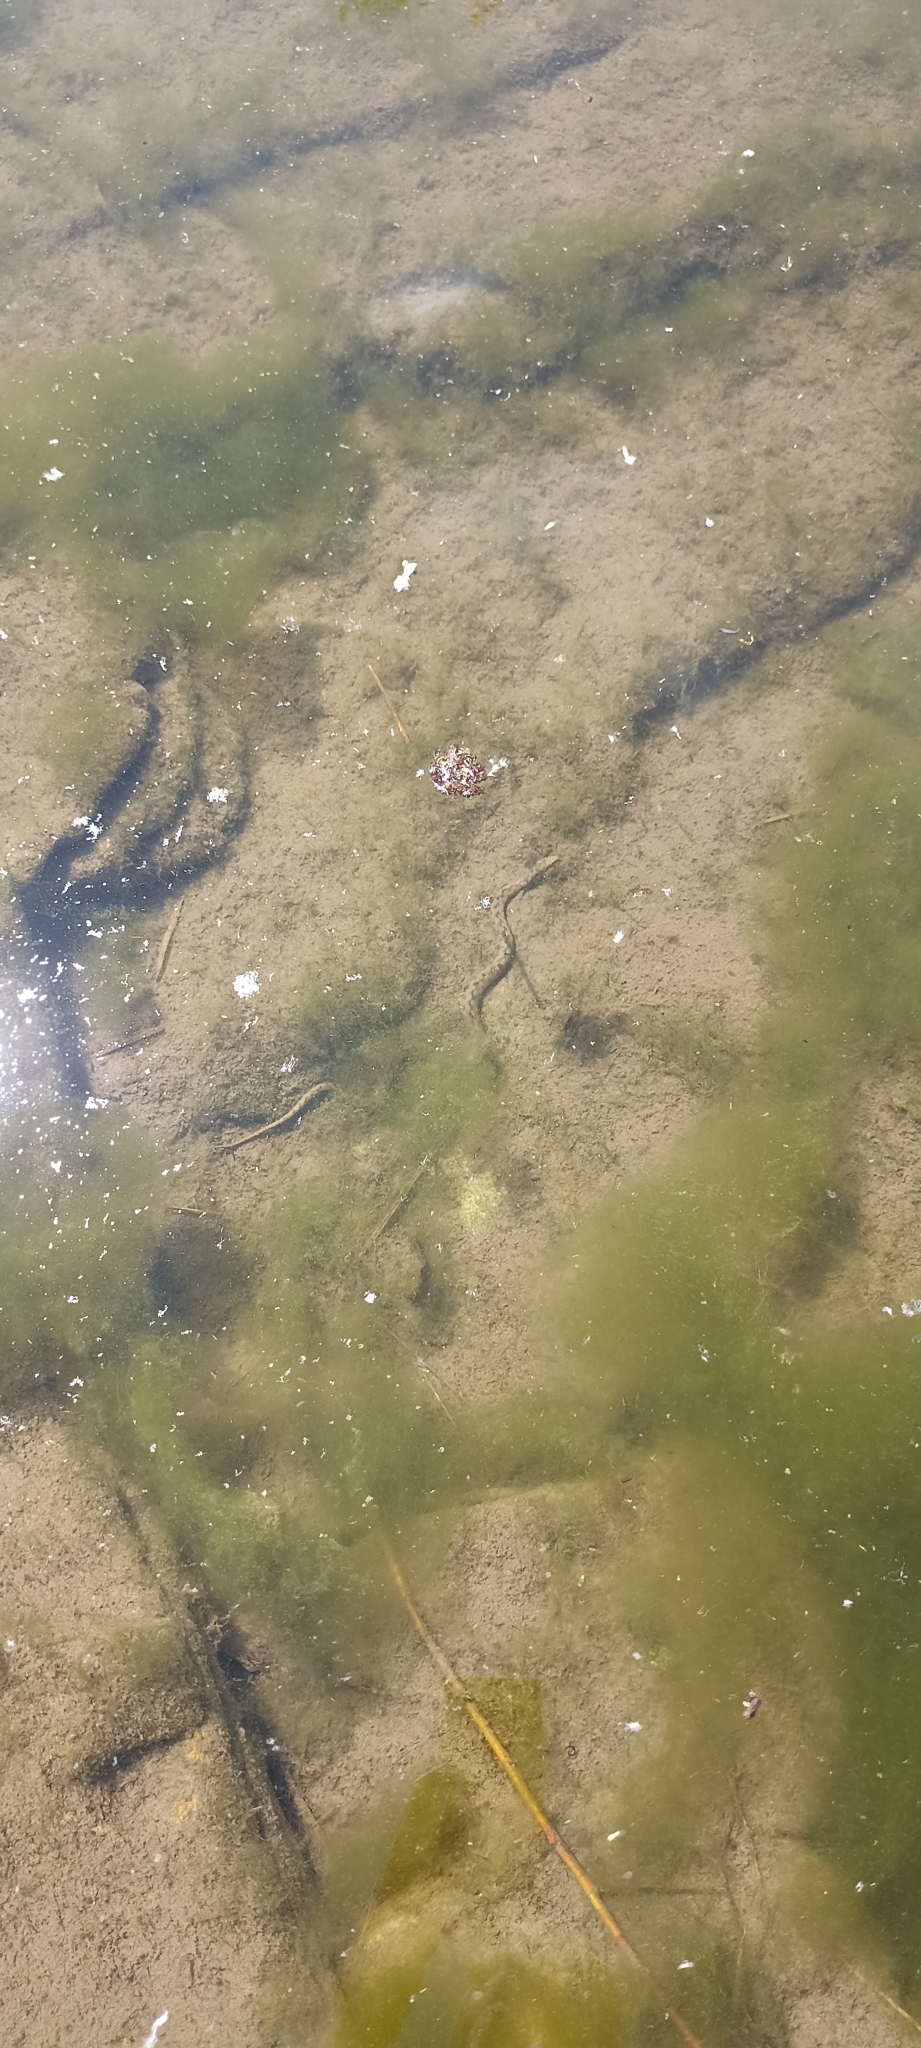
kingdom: Animalia
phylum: Chordata
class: Squamata
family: Colubridae
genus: Natrix
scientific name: Natrix maura
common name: Viperine water snake
